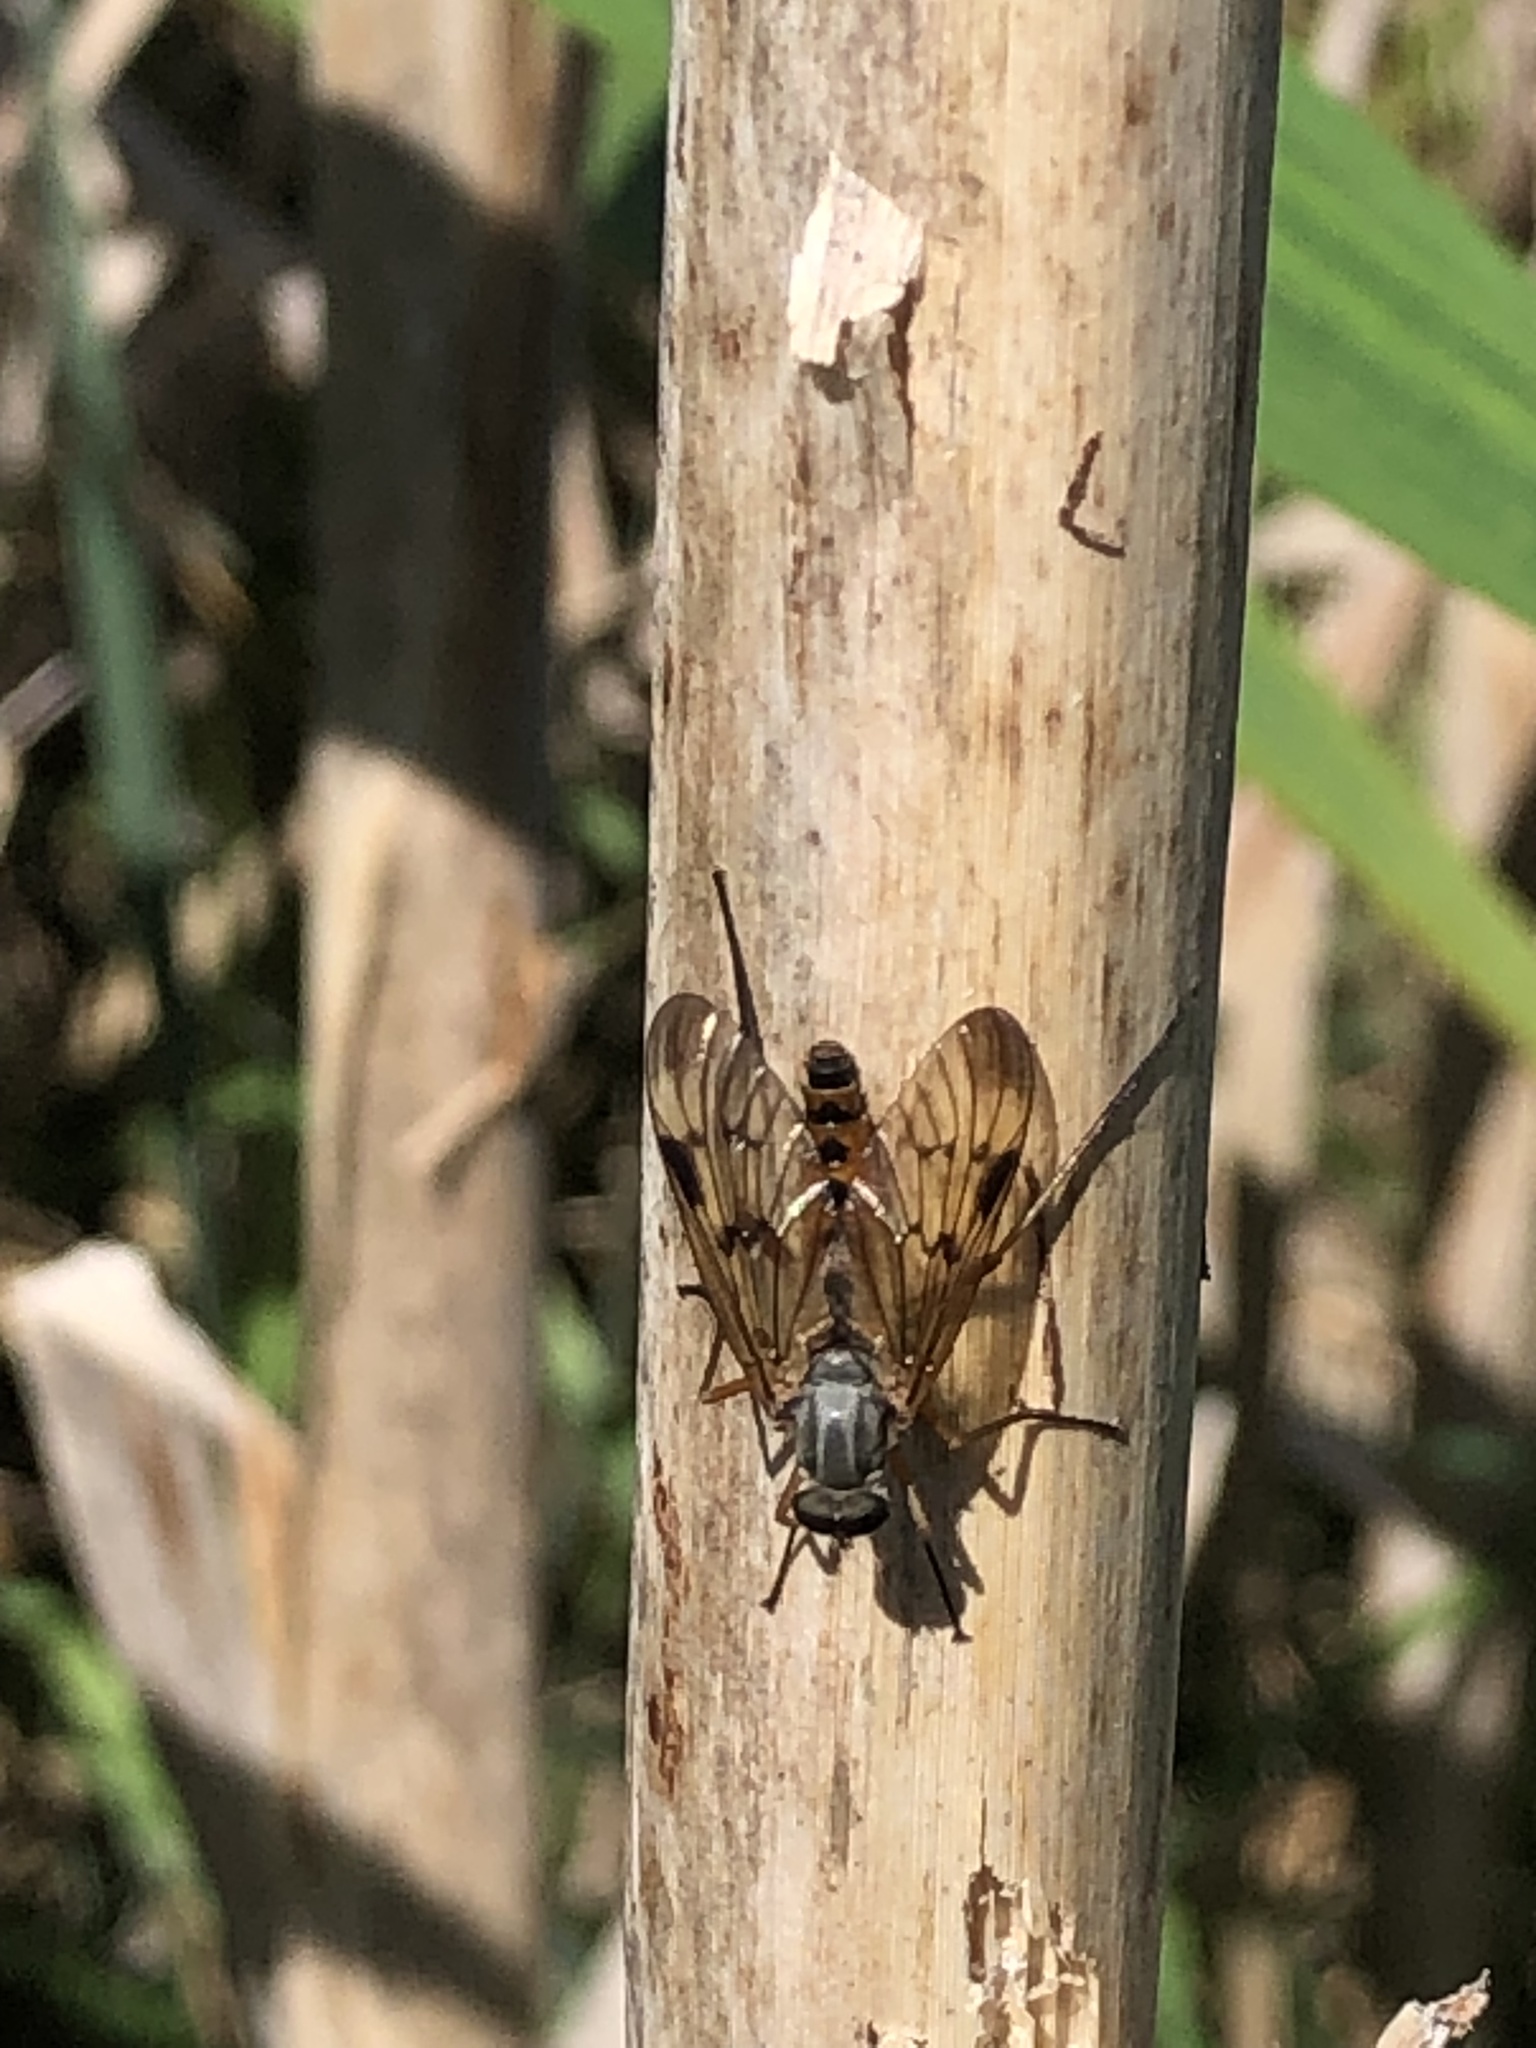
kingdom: Animalia
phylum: Arthropoda
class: Insecta
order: Diptera
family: Rhagionidae
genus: Rhagio
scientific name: Rhagio scolopacea
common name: Downlooker snipefly
